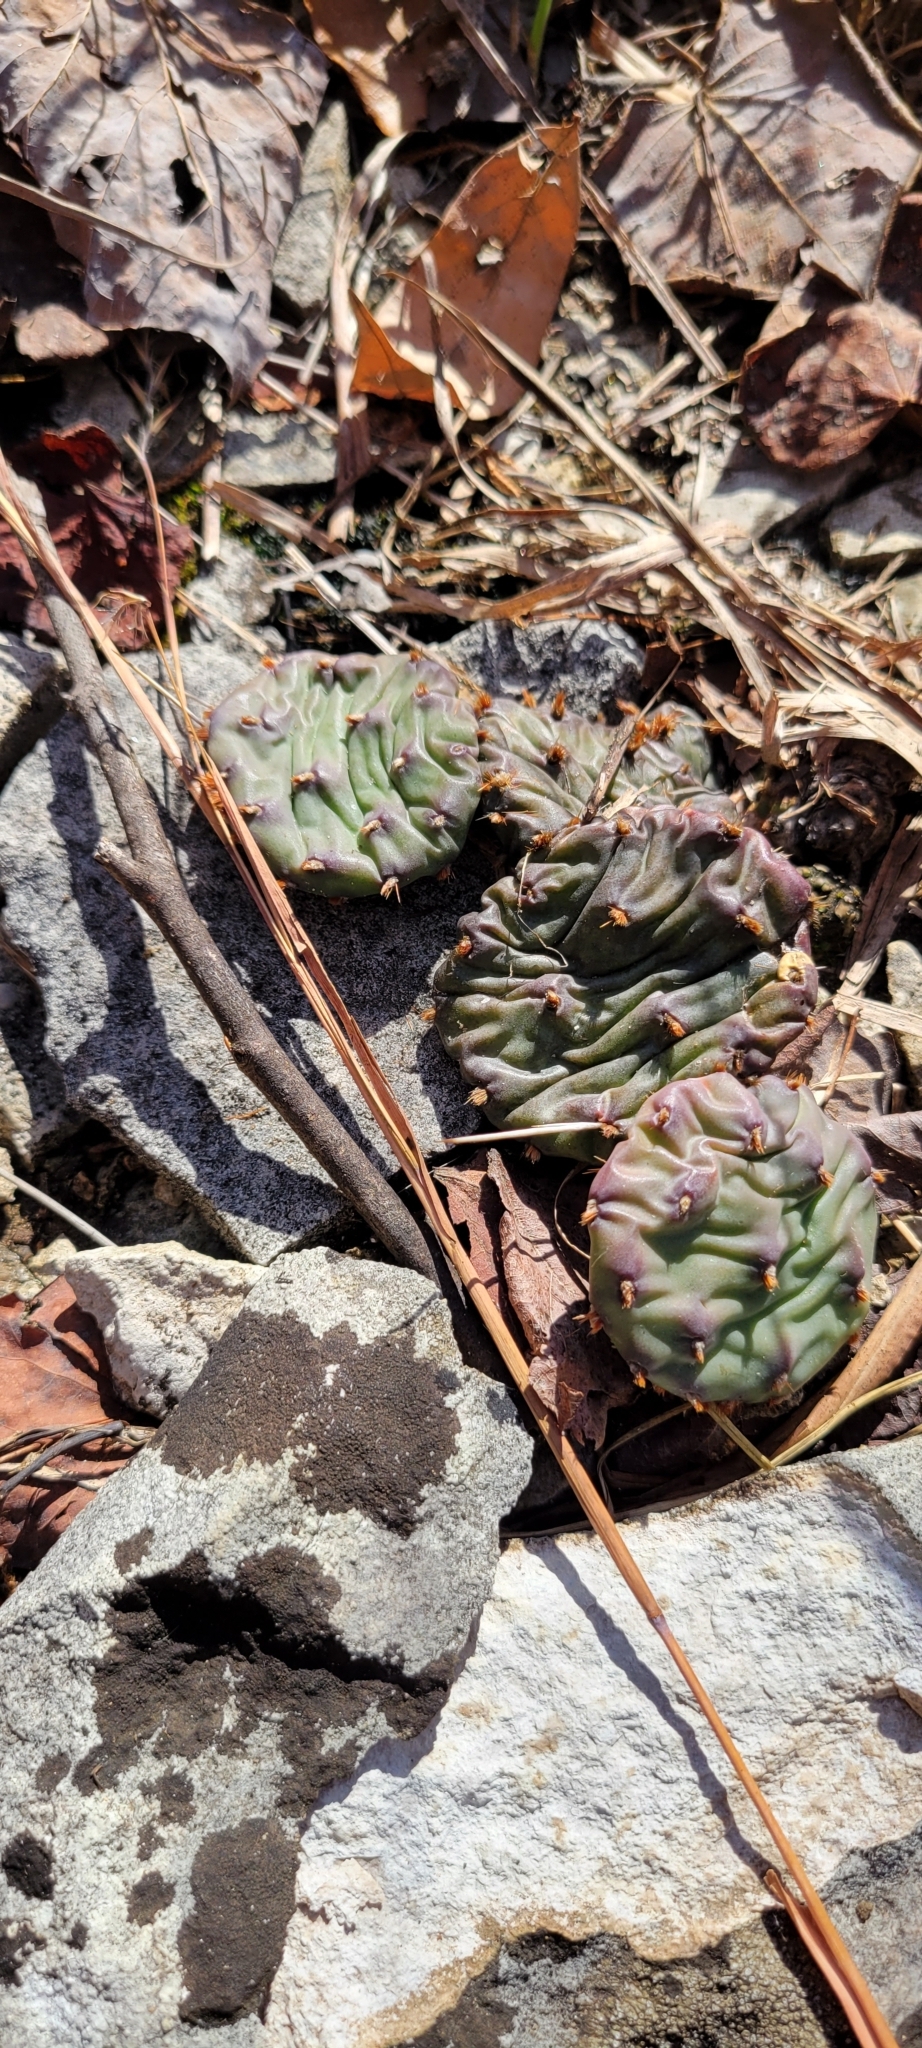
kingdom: Plantae
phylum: Tracheophyta
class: Magnoliopsida
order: Caryophyllales
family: Cactaceae
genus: Opuntia
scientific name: Opuntia humifusa
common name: Eastern prickly-pear
